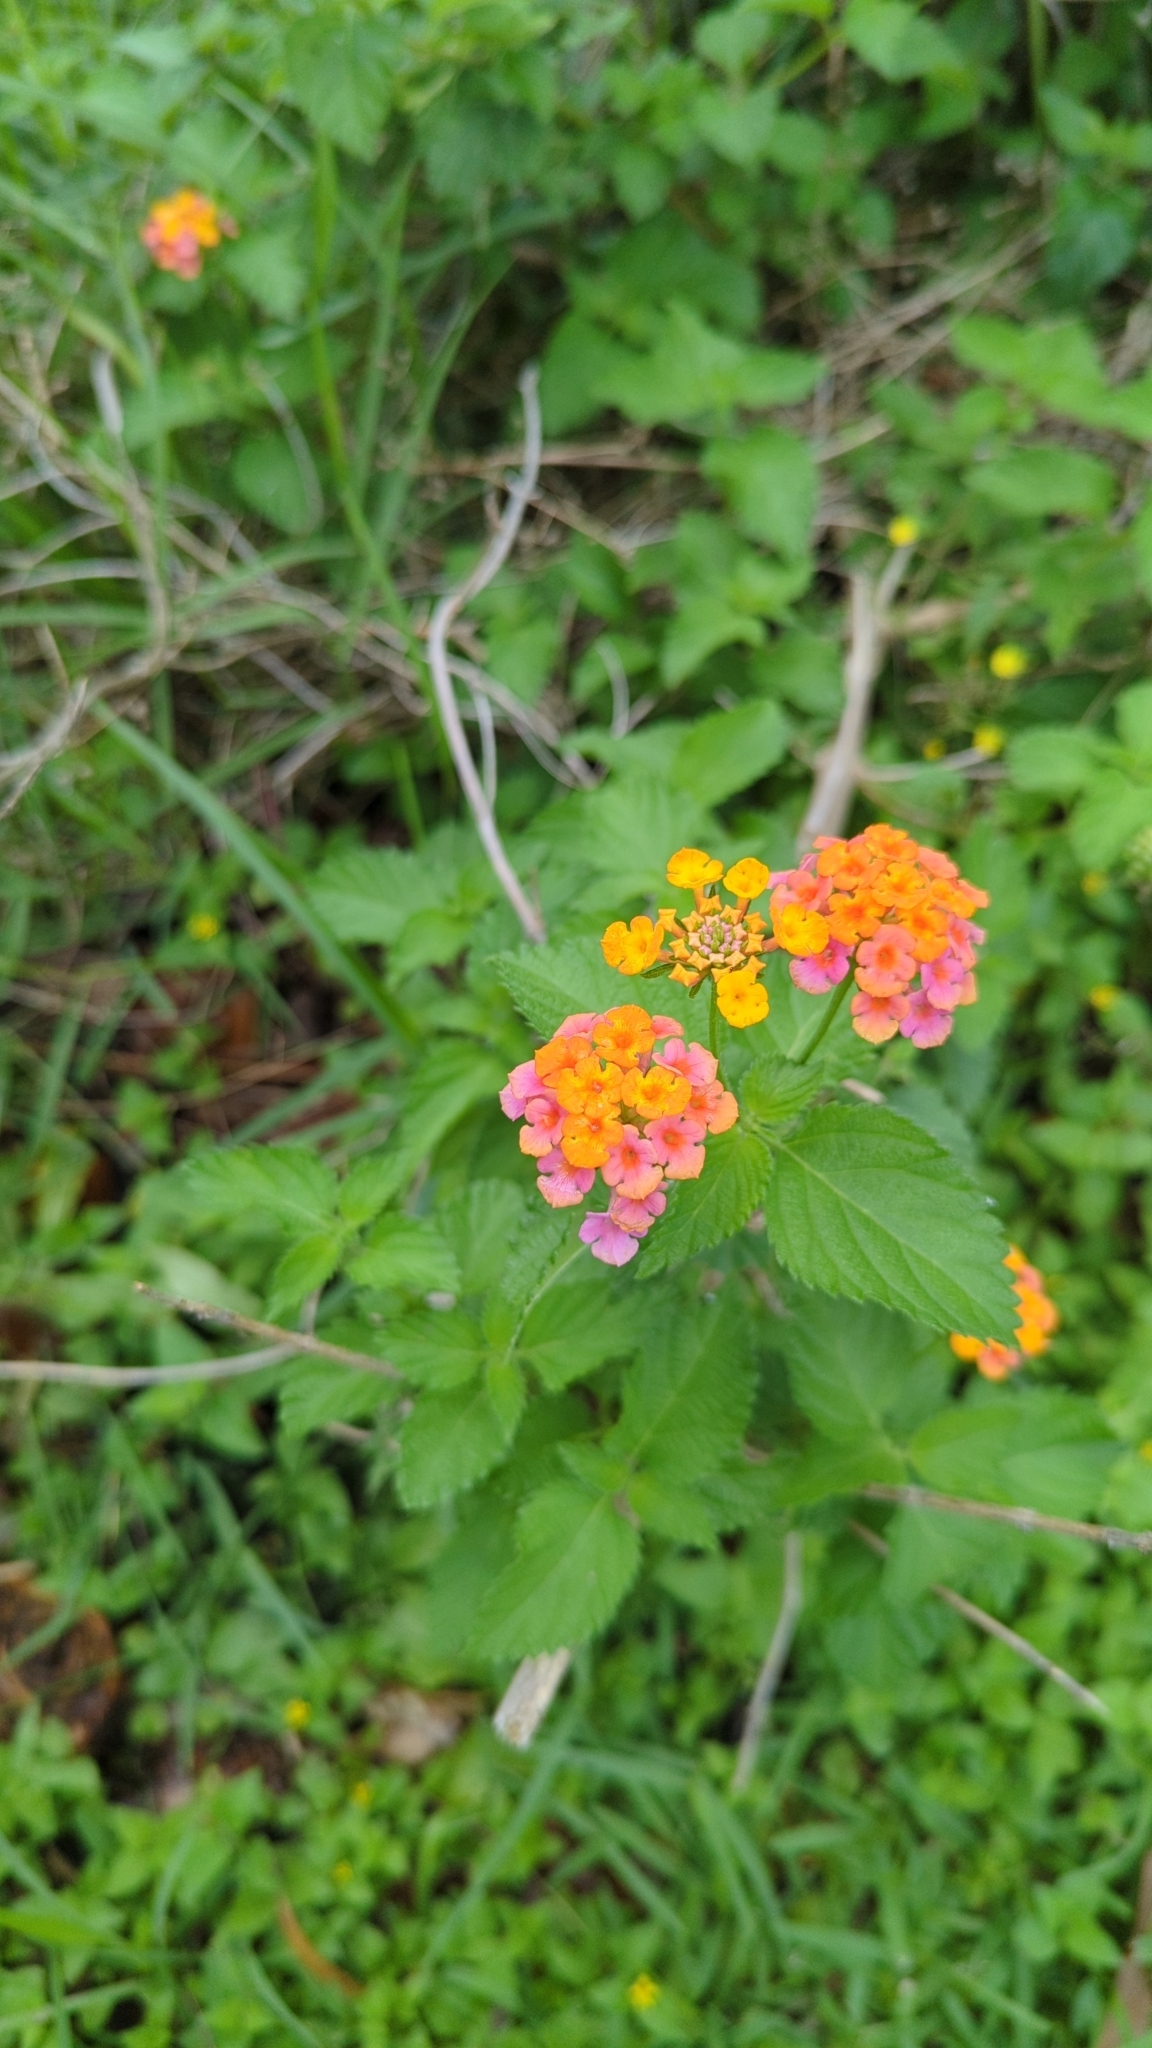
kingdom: Plantae
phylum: Tracheophyta
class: Magnoliopsida
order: Lamiales
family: Verbenaceae
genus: Lantana
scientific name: Lantana camara
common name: Lantana
